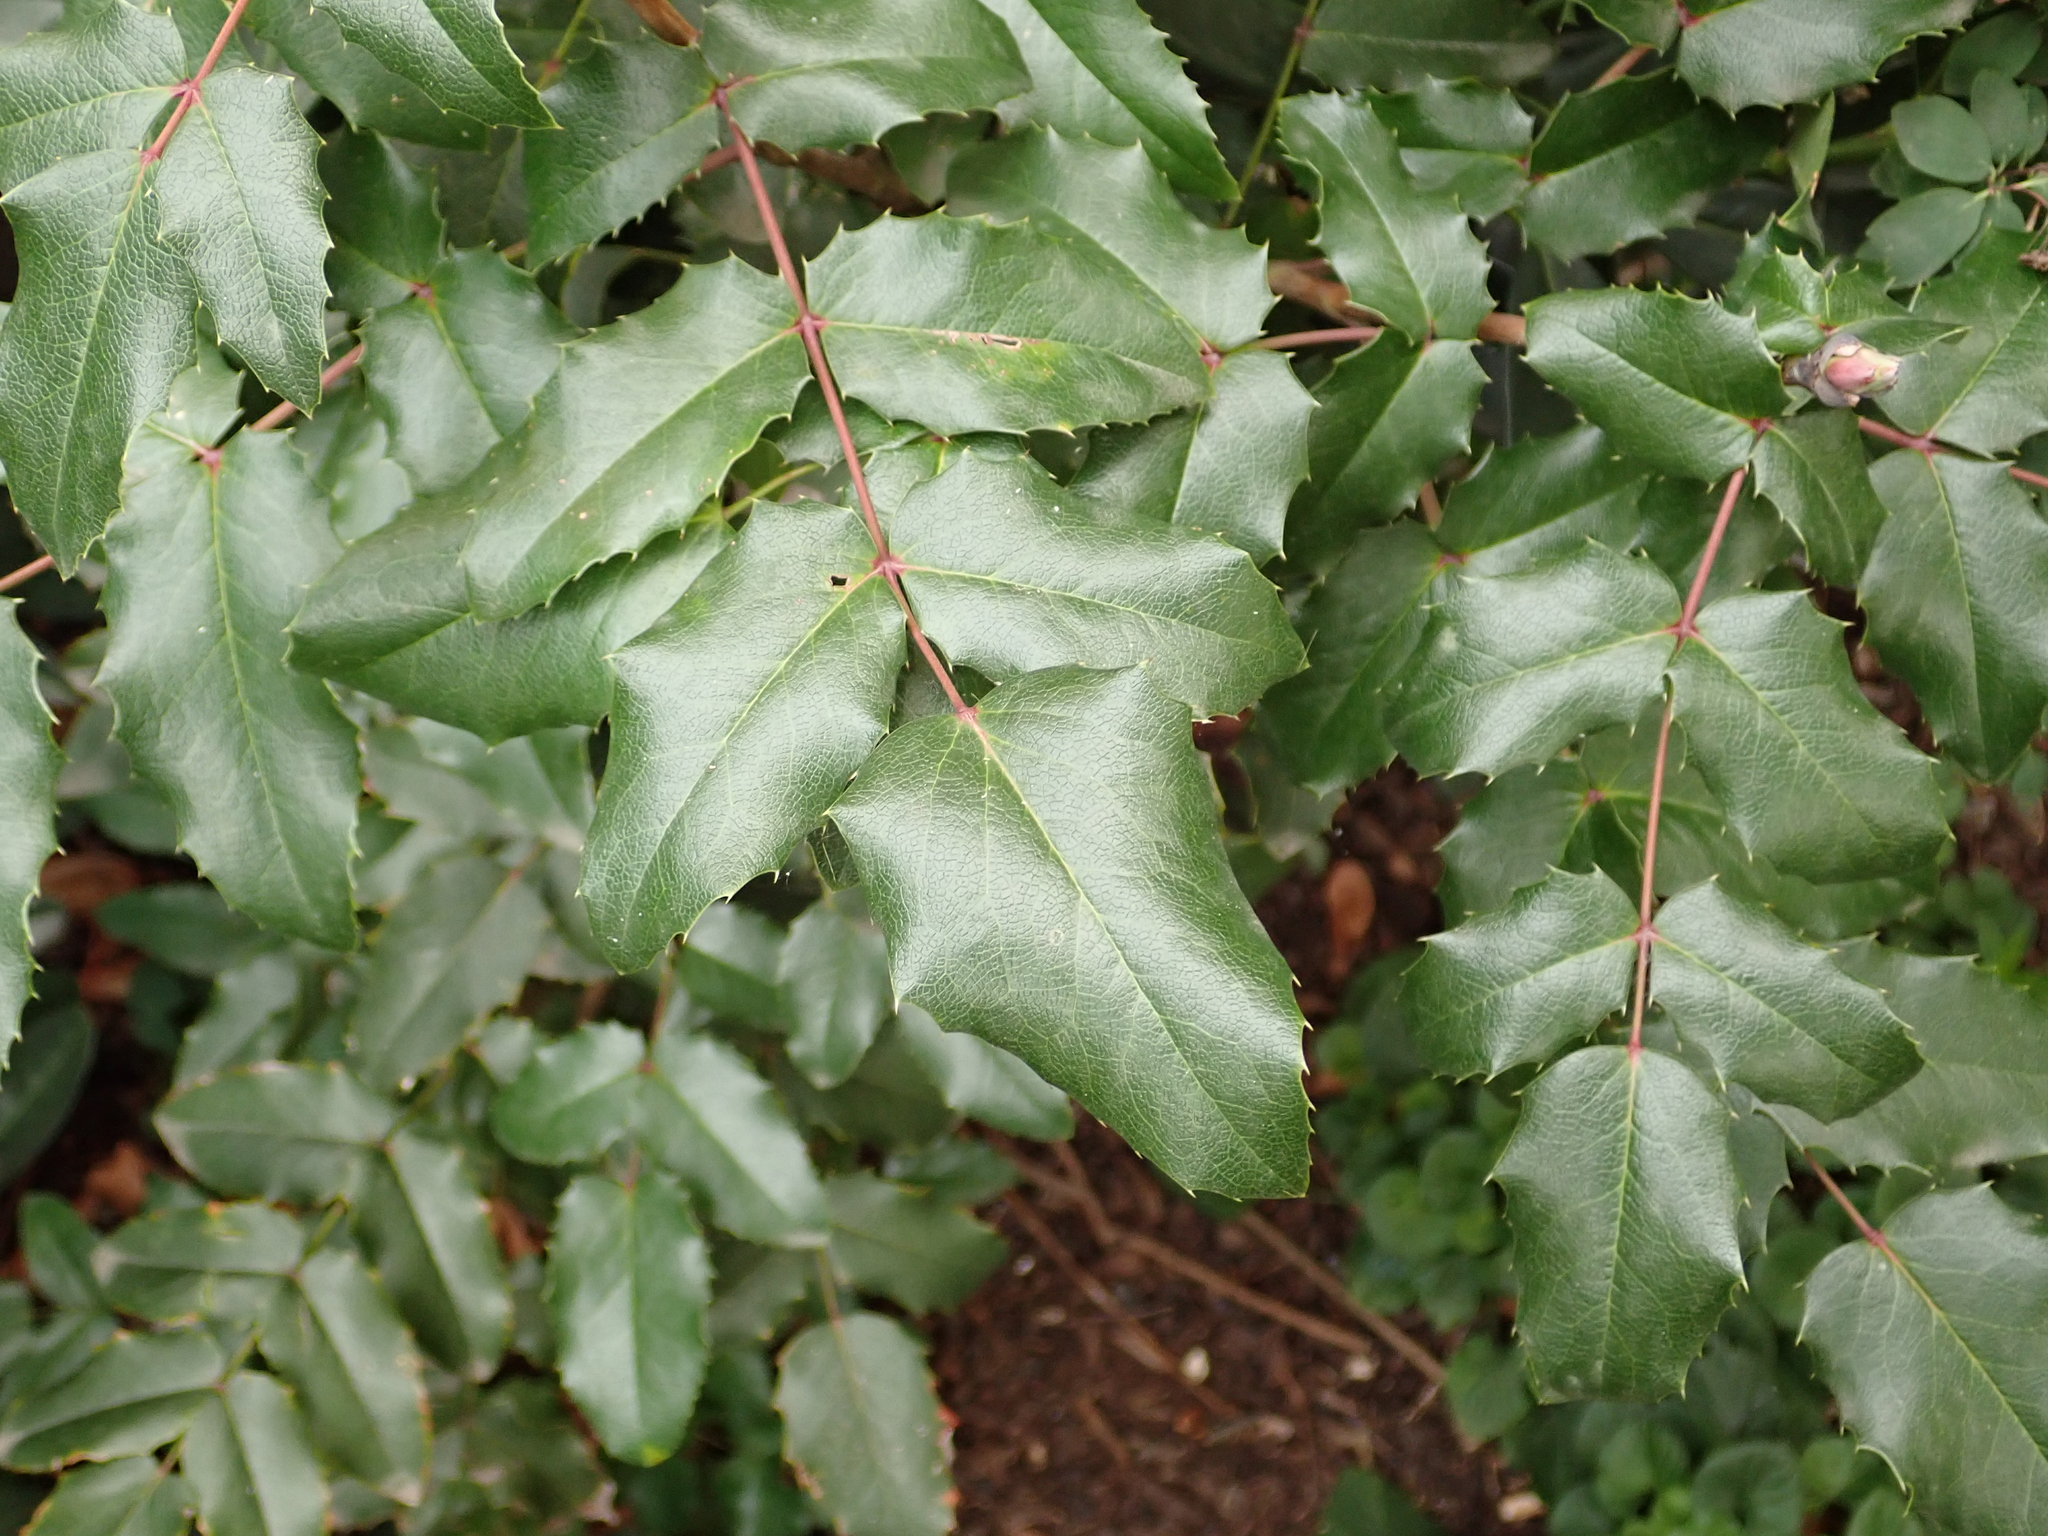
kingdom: Plantae
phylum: Tracheophyta
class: Magnoliopsida
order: Ranunculales
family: Berberidaceae
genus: Mahonia
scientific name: Mahonia aquifolium
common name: Oregon-grape
